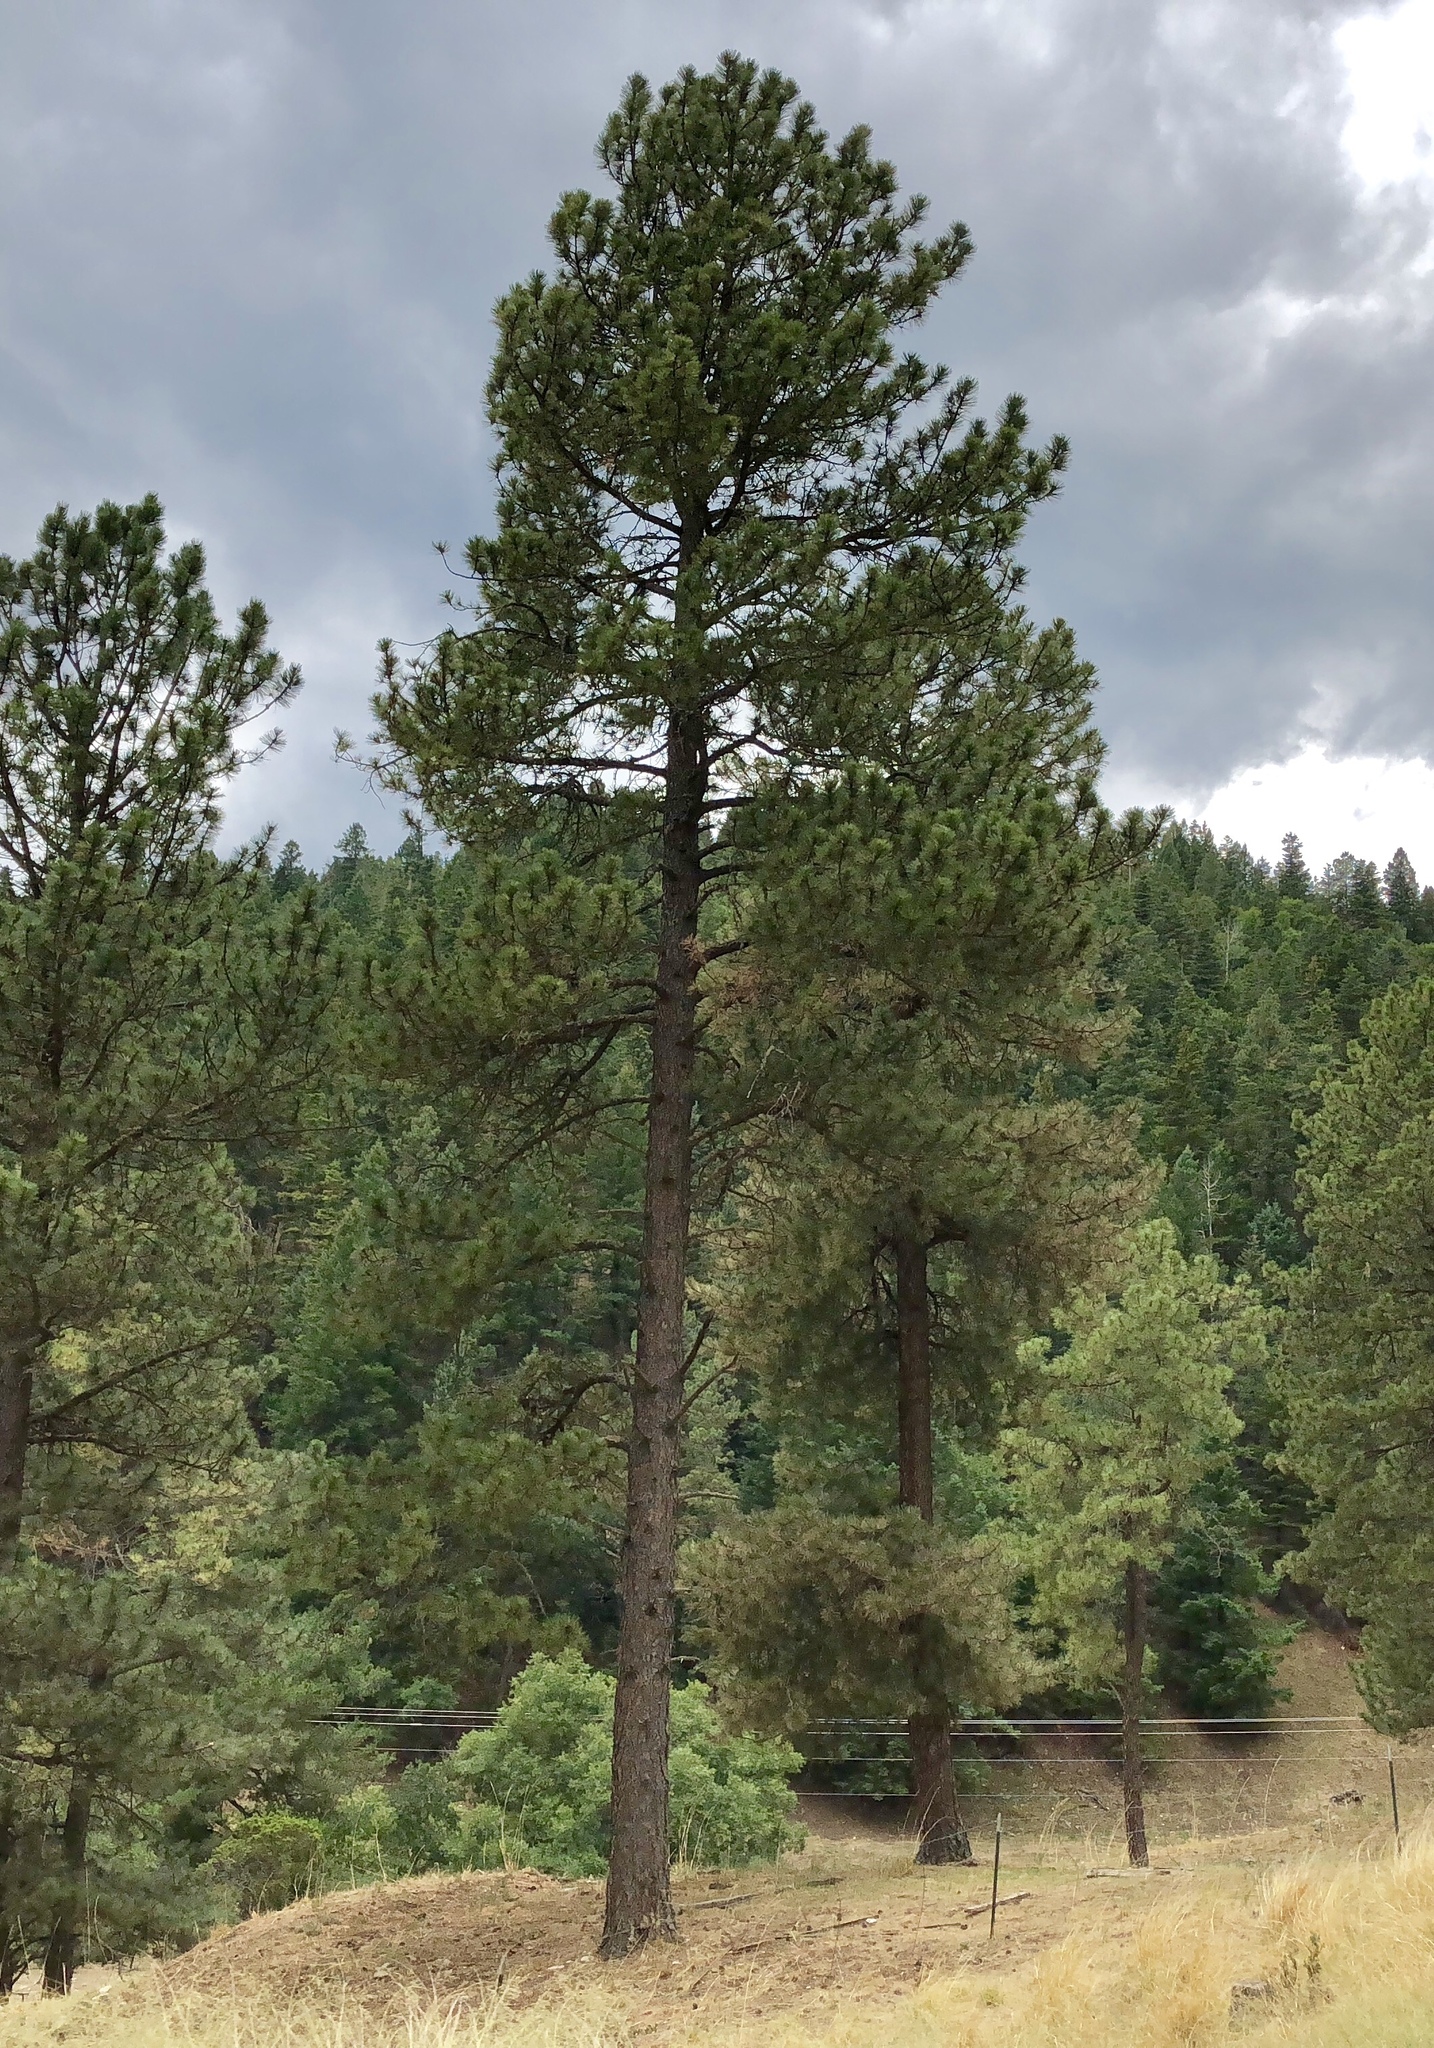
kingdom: Plantae
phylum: Tracheophyta
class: Pinopsida
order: Pinales
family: Pinaceae
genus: Pinus
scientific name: Pinus ponderosa
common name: Western yellow-pine
